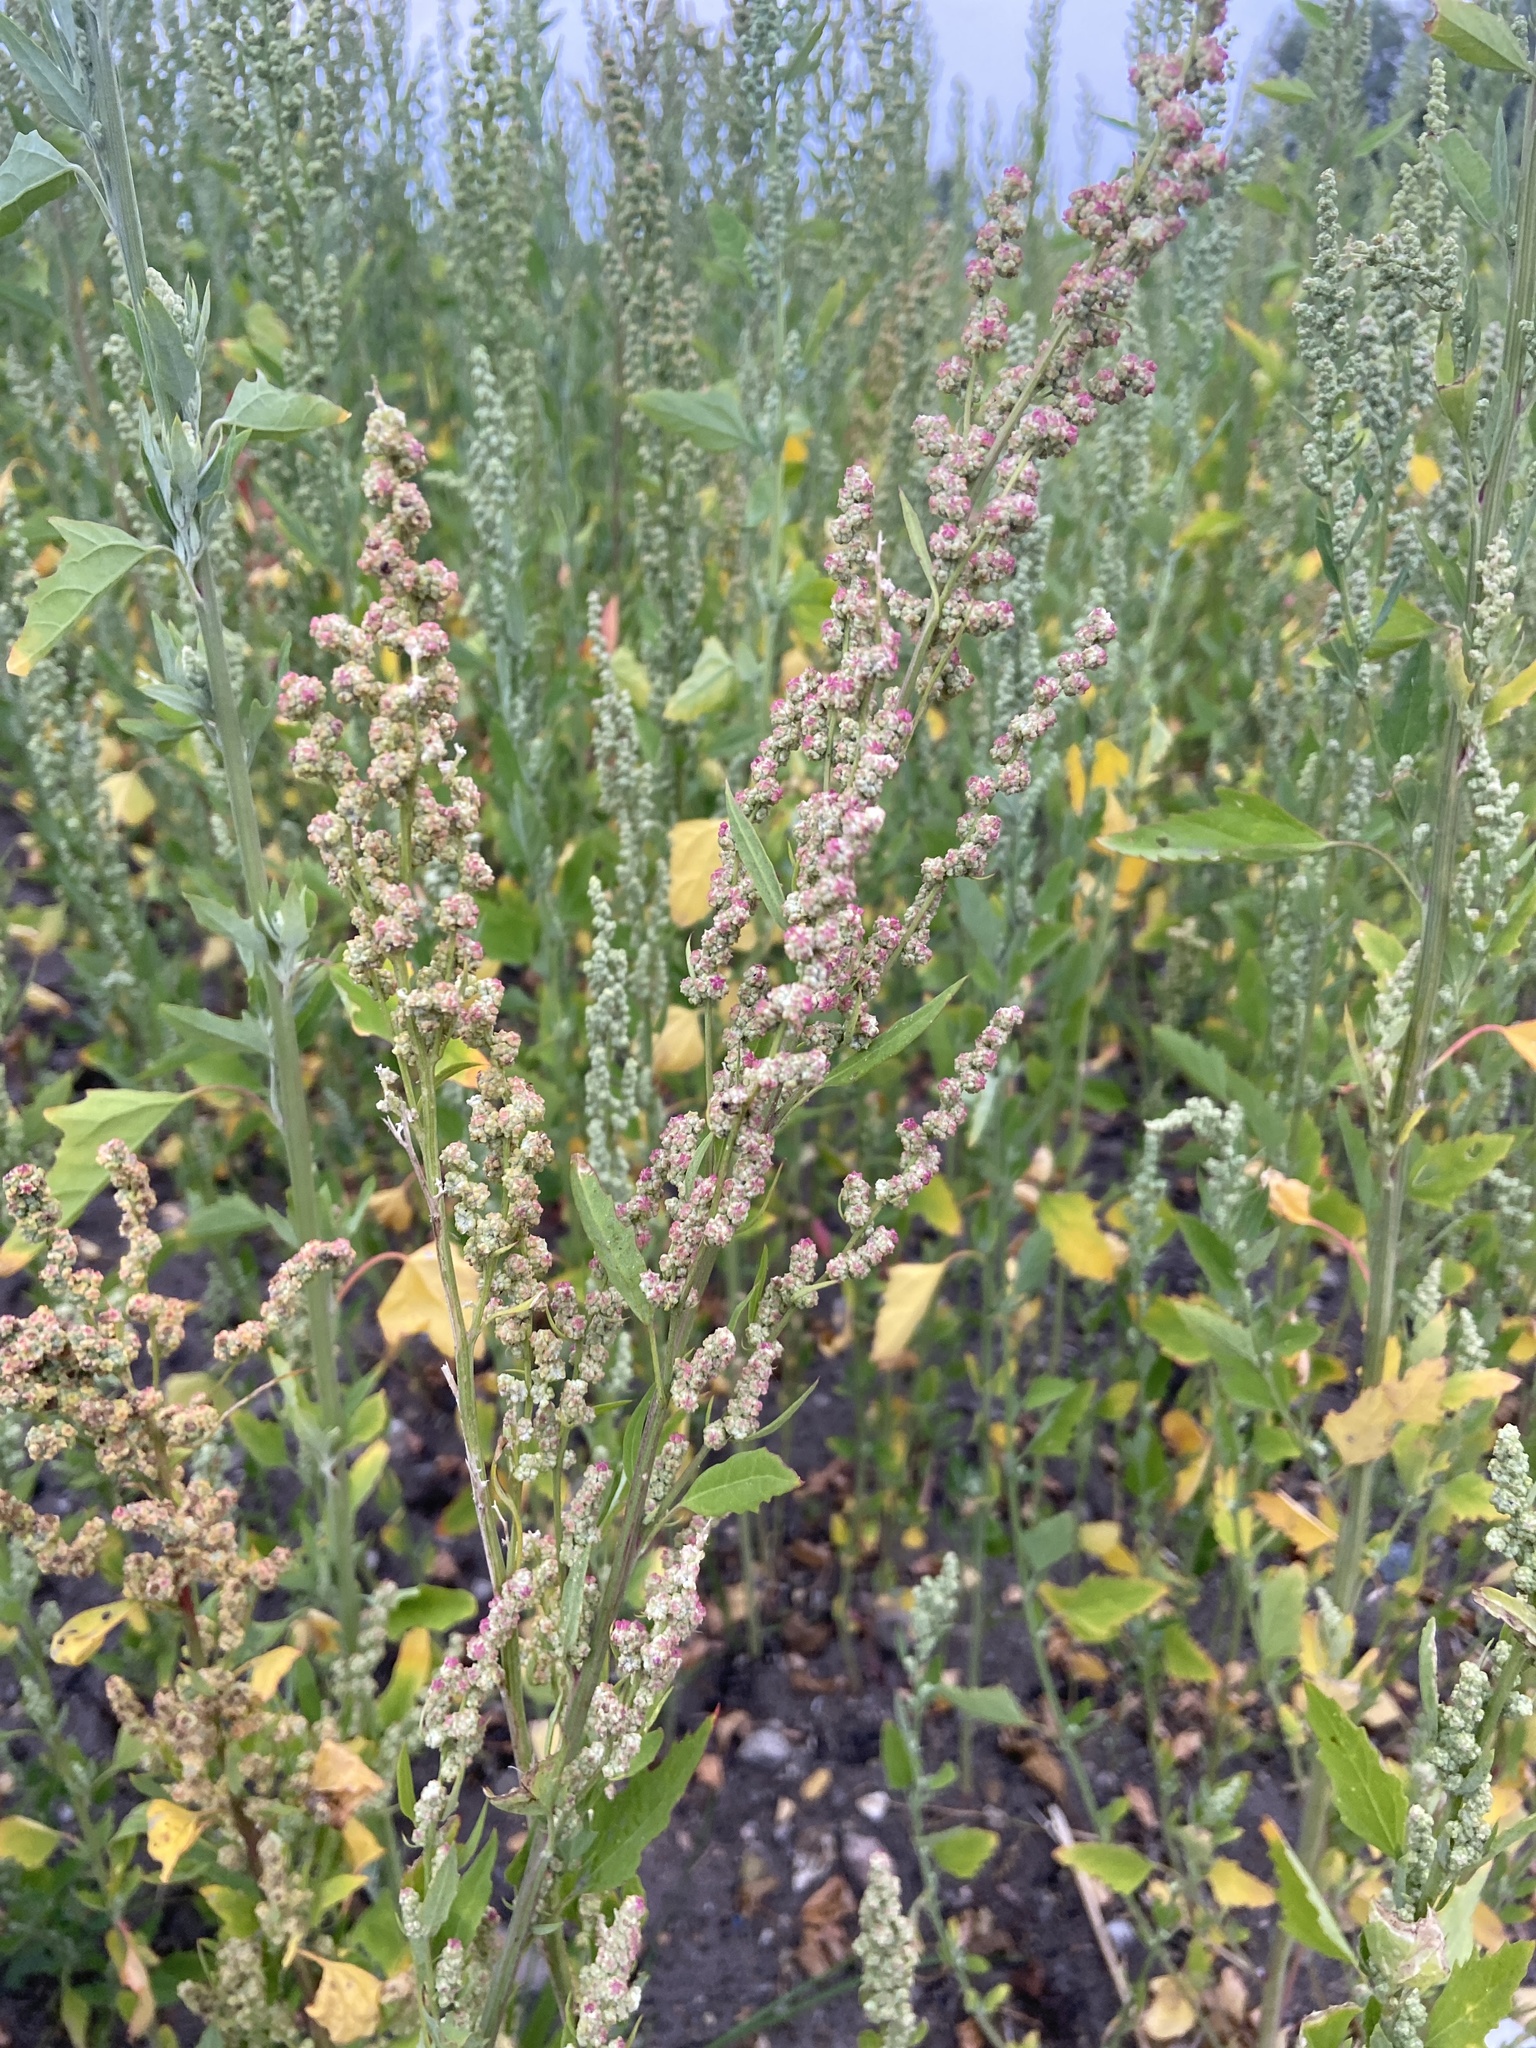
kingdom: Plantae
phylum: Tracheophyta
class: Magnoliopsida
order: Caryophyllales
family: Amaranthaceae
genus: Chenopodium
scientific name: Chenopodium album
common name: Fat-hen
